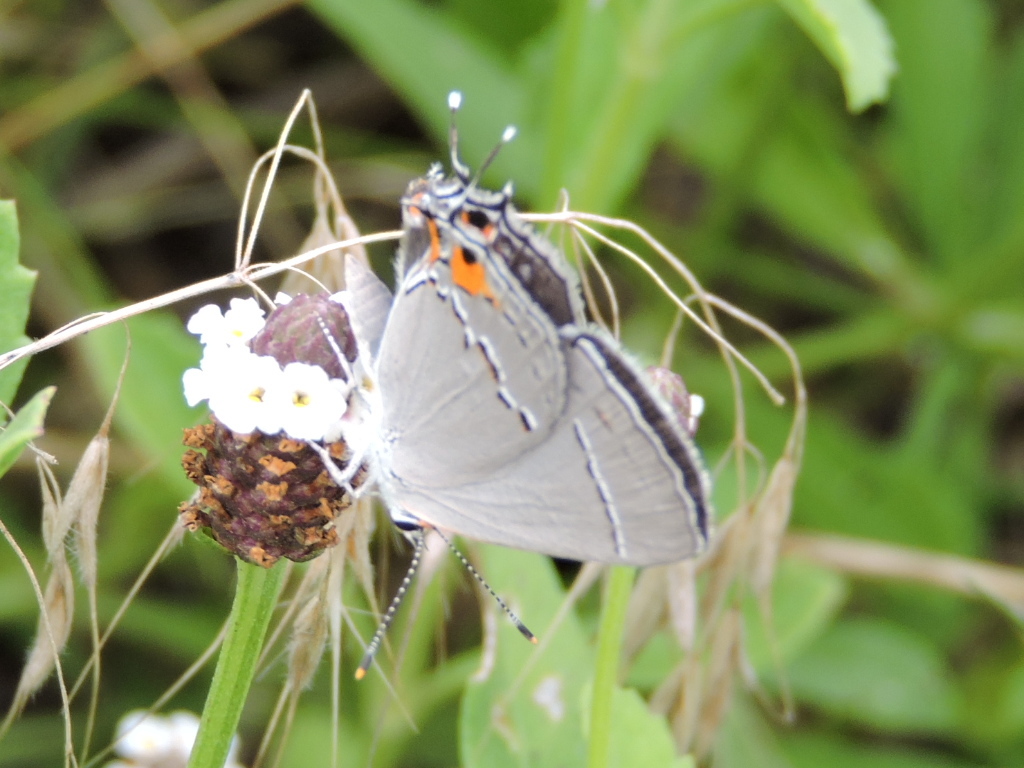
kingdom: Animalia
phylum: Arthropoda
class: Insecta
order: Lepidoptera
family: Lycaenidae
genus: Strymon
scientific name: Strymon melinus
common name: Gray hairstreak
